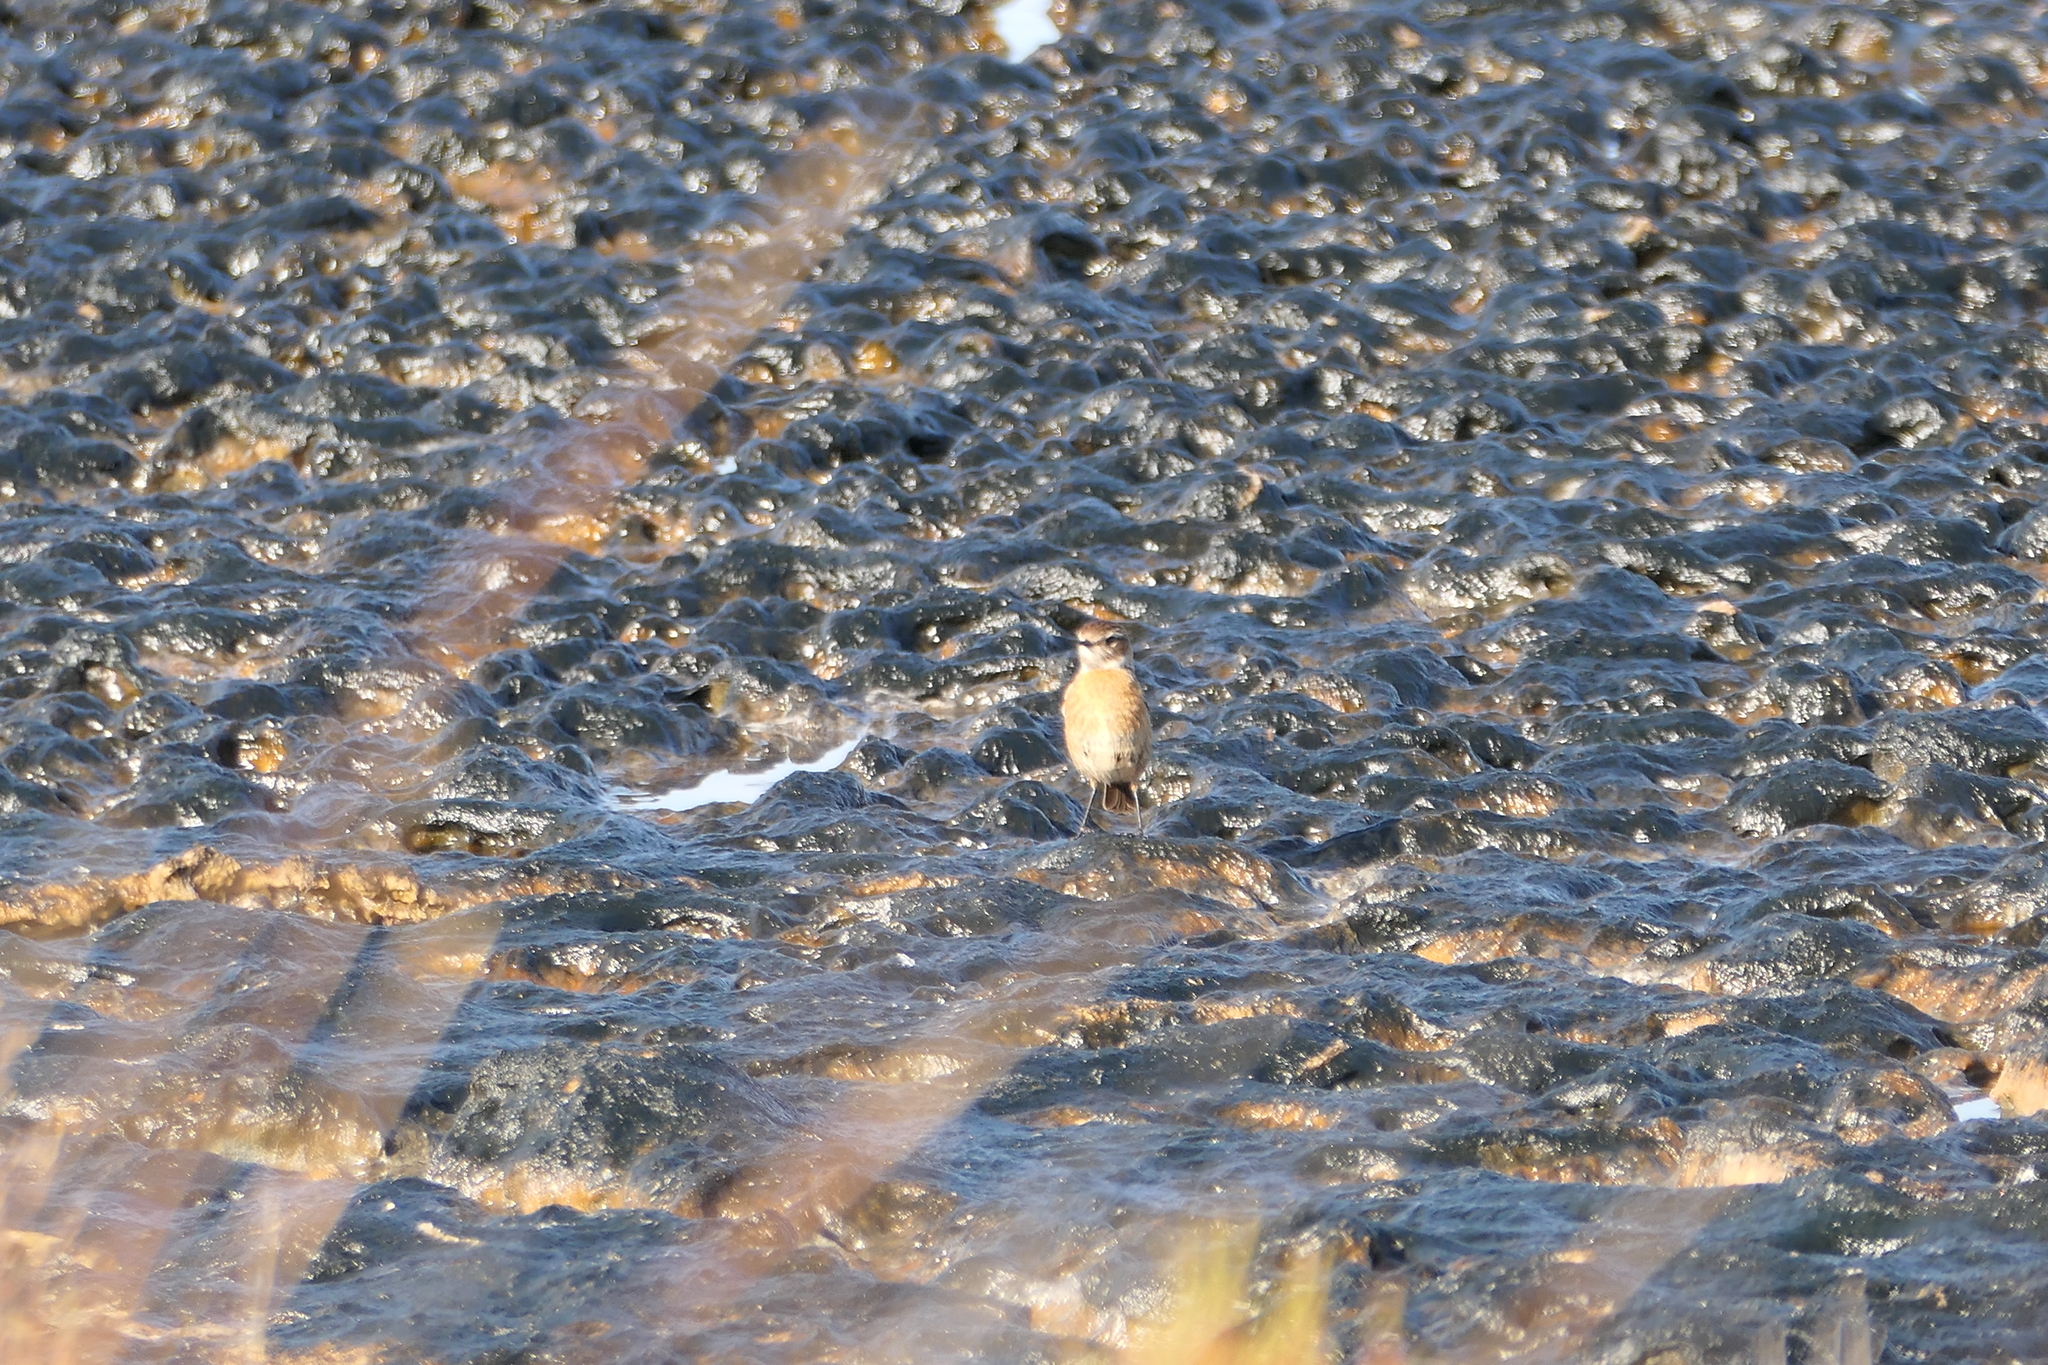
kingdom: Animalia
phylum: Chordata
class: Aves
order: Passeriformes
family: Muscicapidae
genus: Saxicola
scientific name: Saxicola rubicola
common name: European stonechat
